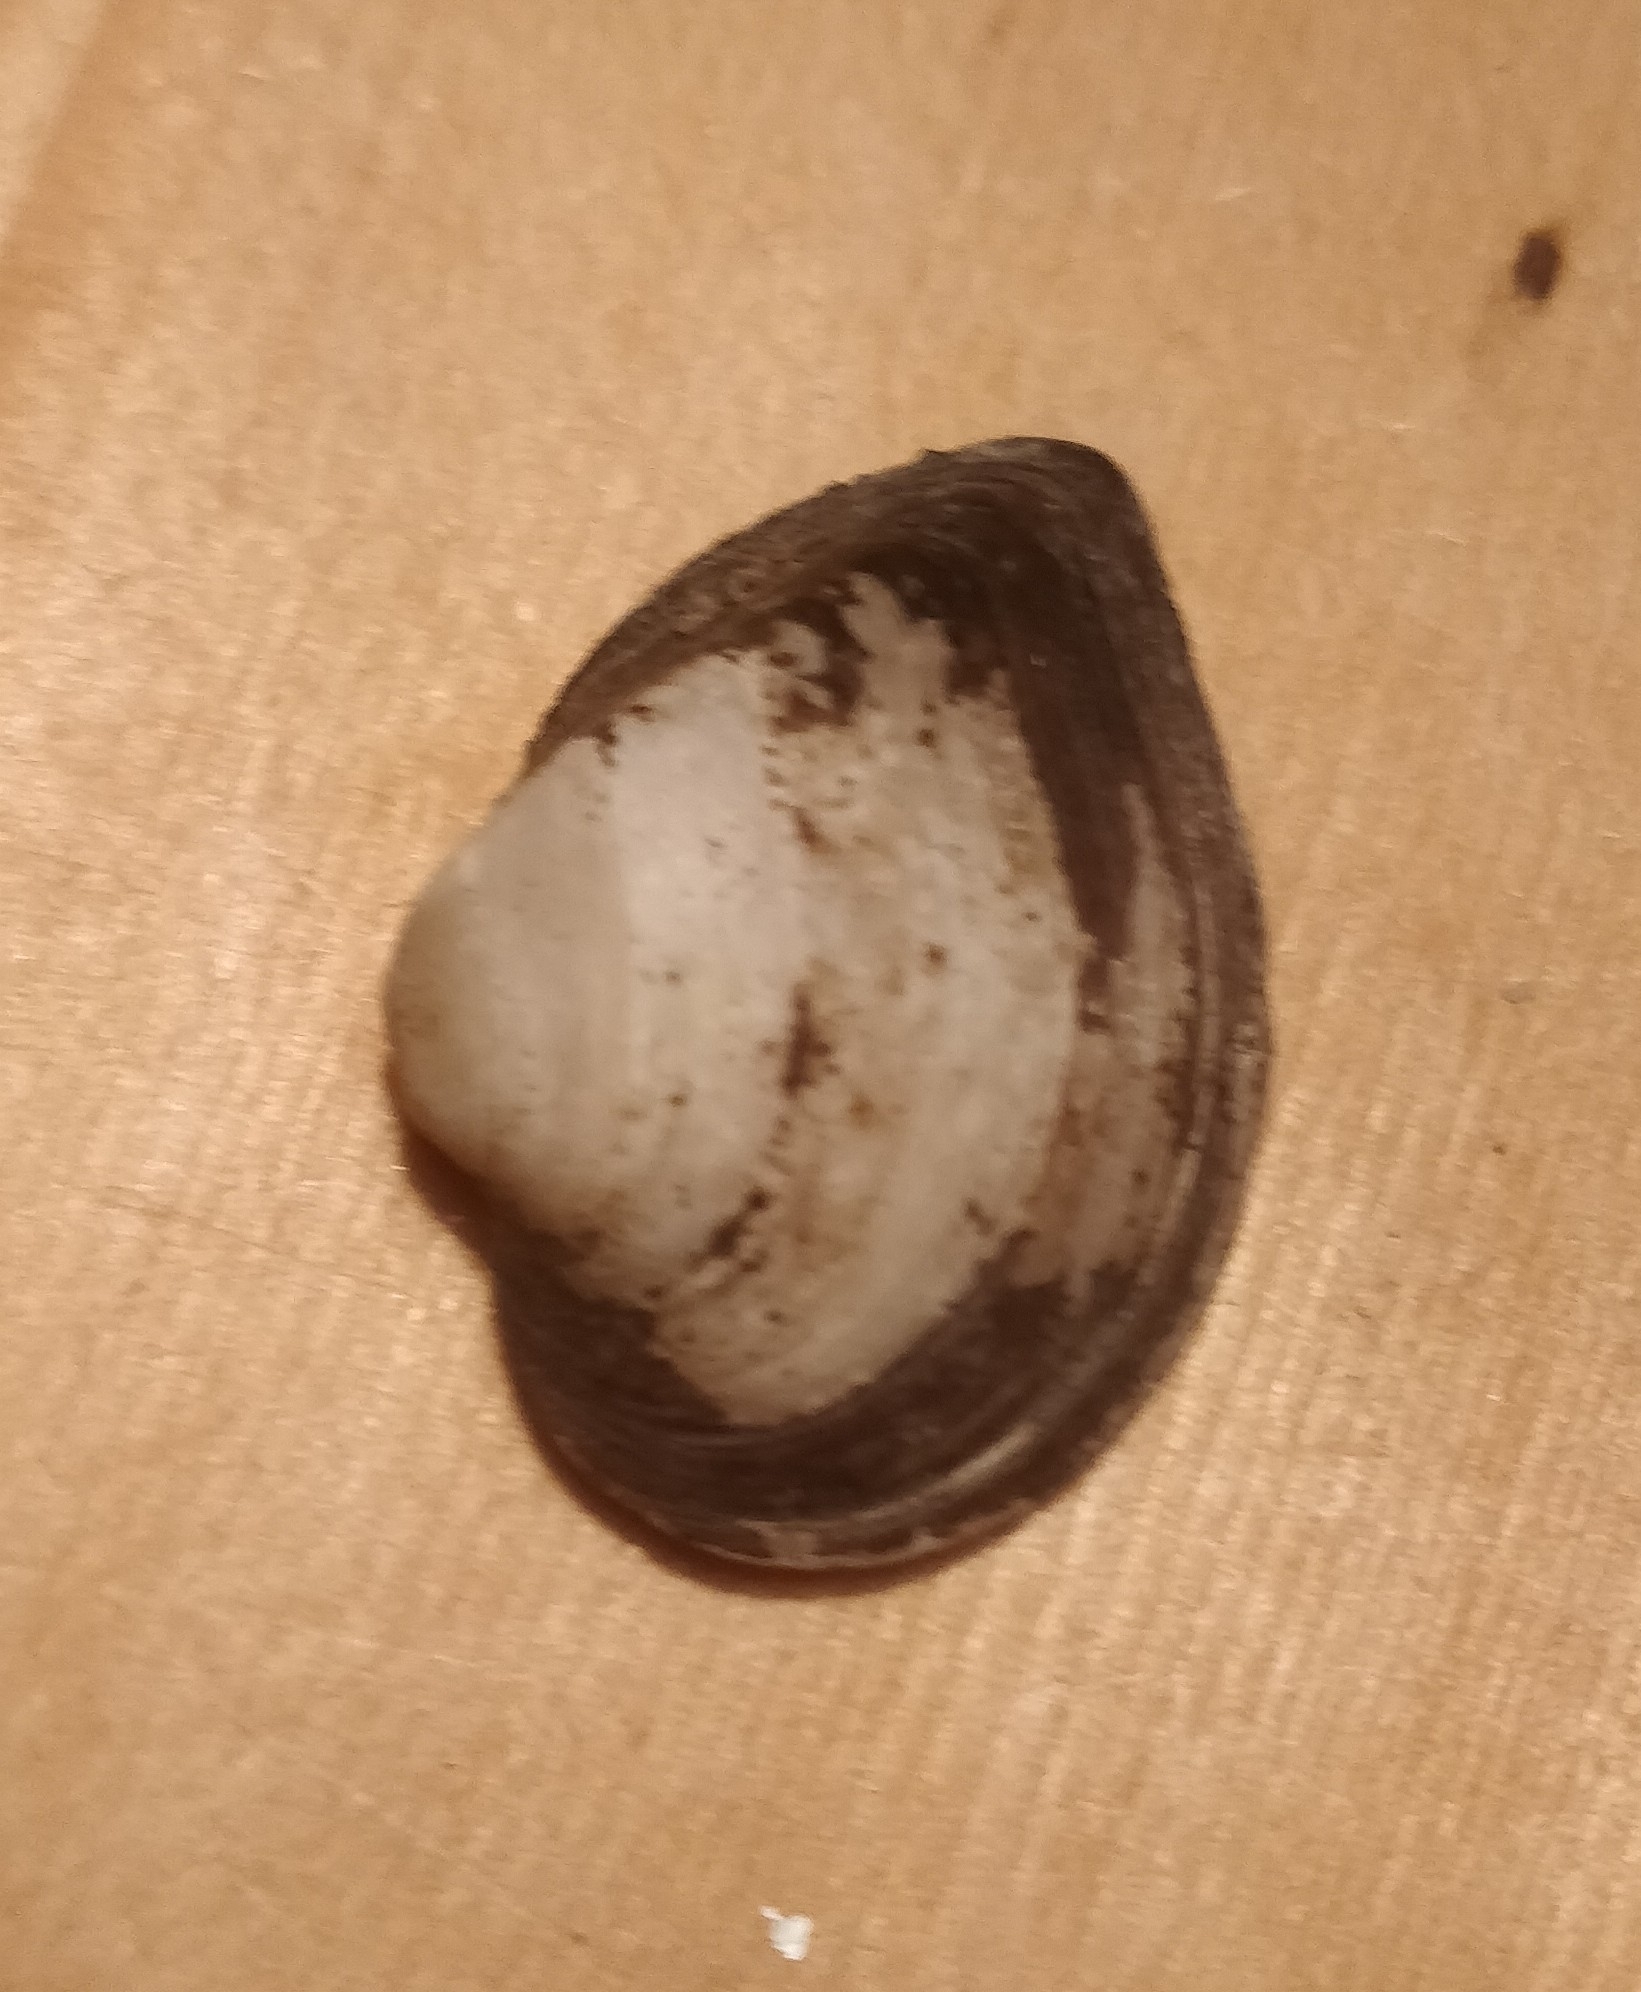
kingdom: Animalia
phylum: Mollusca
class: Bivalvia
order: Unionida
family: Unionidae
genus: Truncilla
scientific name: Truncilla truncata
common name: Deertoe
